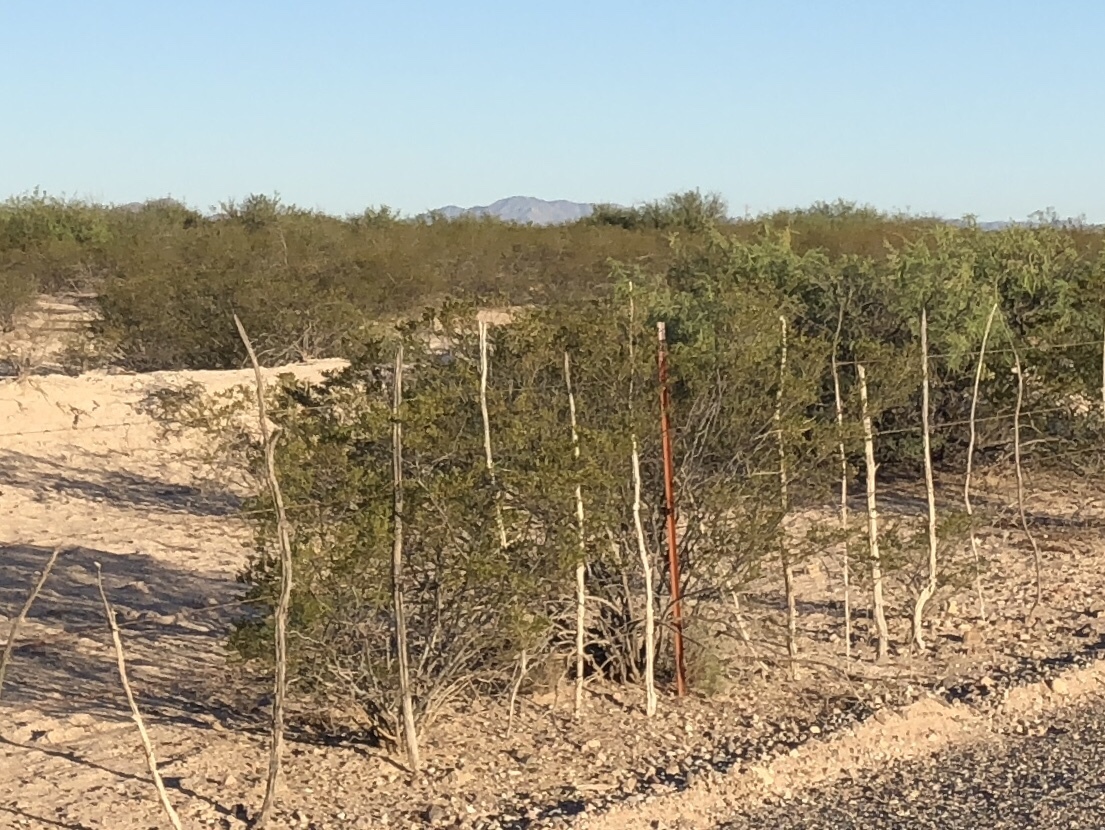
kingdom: Plantae
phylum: Tracheophyta
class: Magnoliopsida
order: Zygophyllales
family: Zygophyllaceae
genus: Larrea
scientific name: Larrea tridentata
